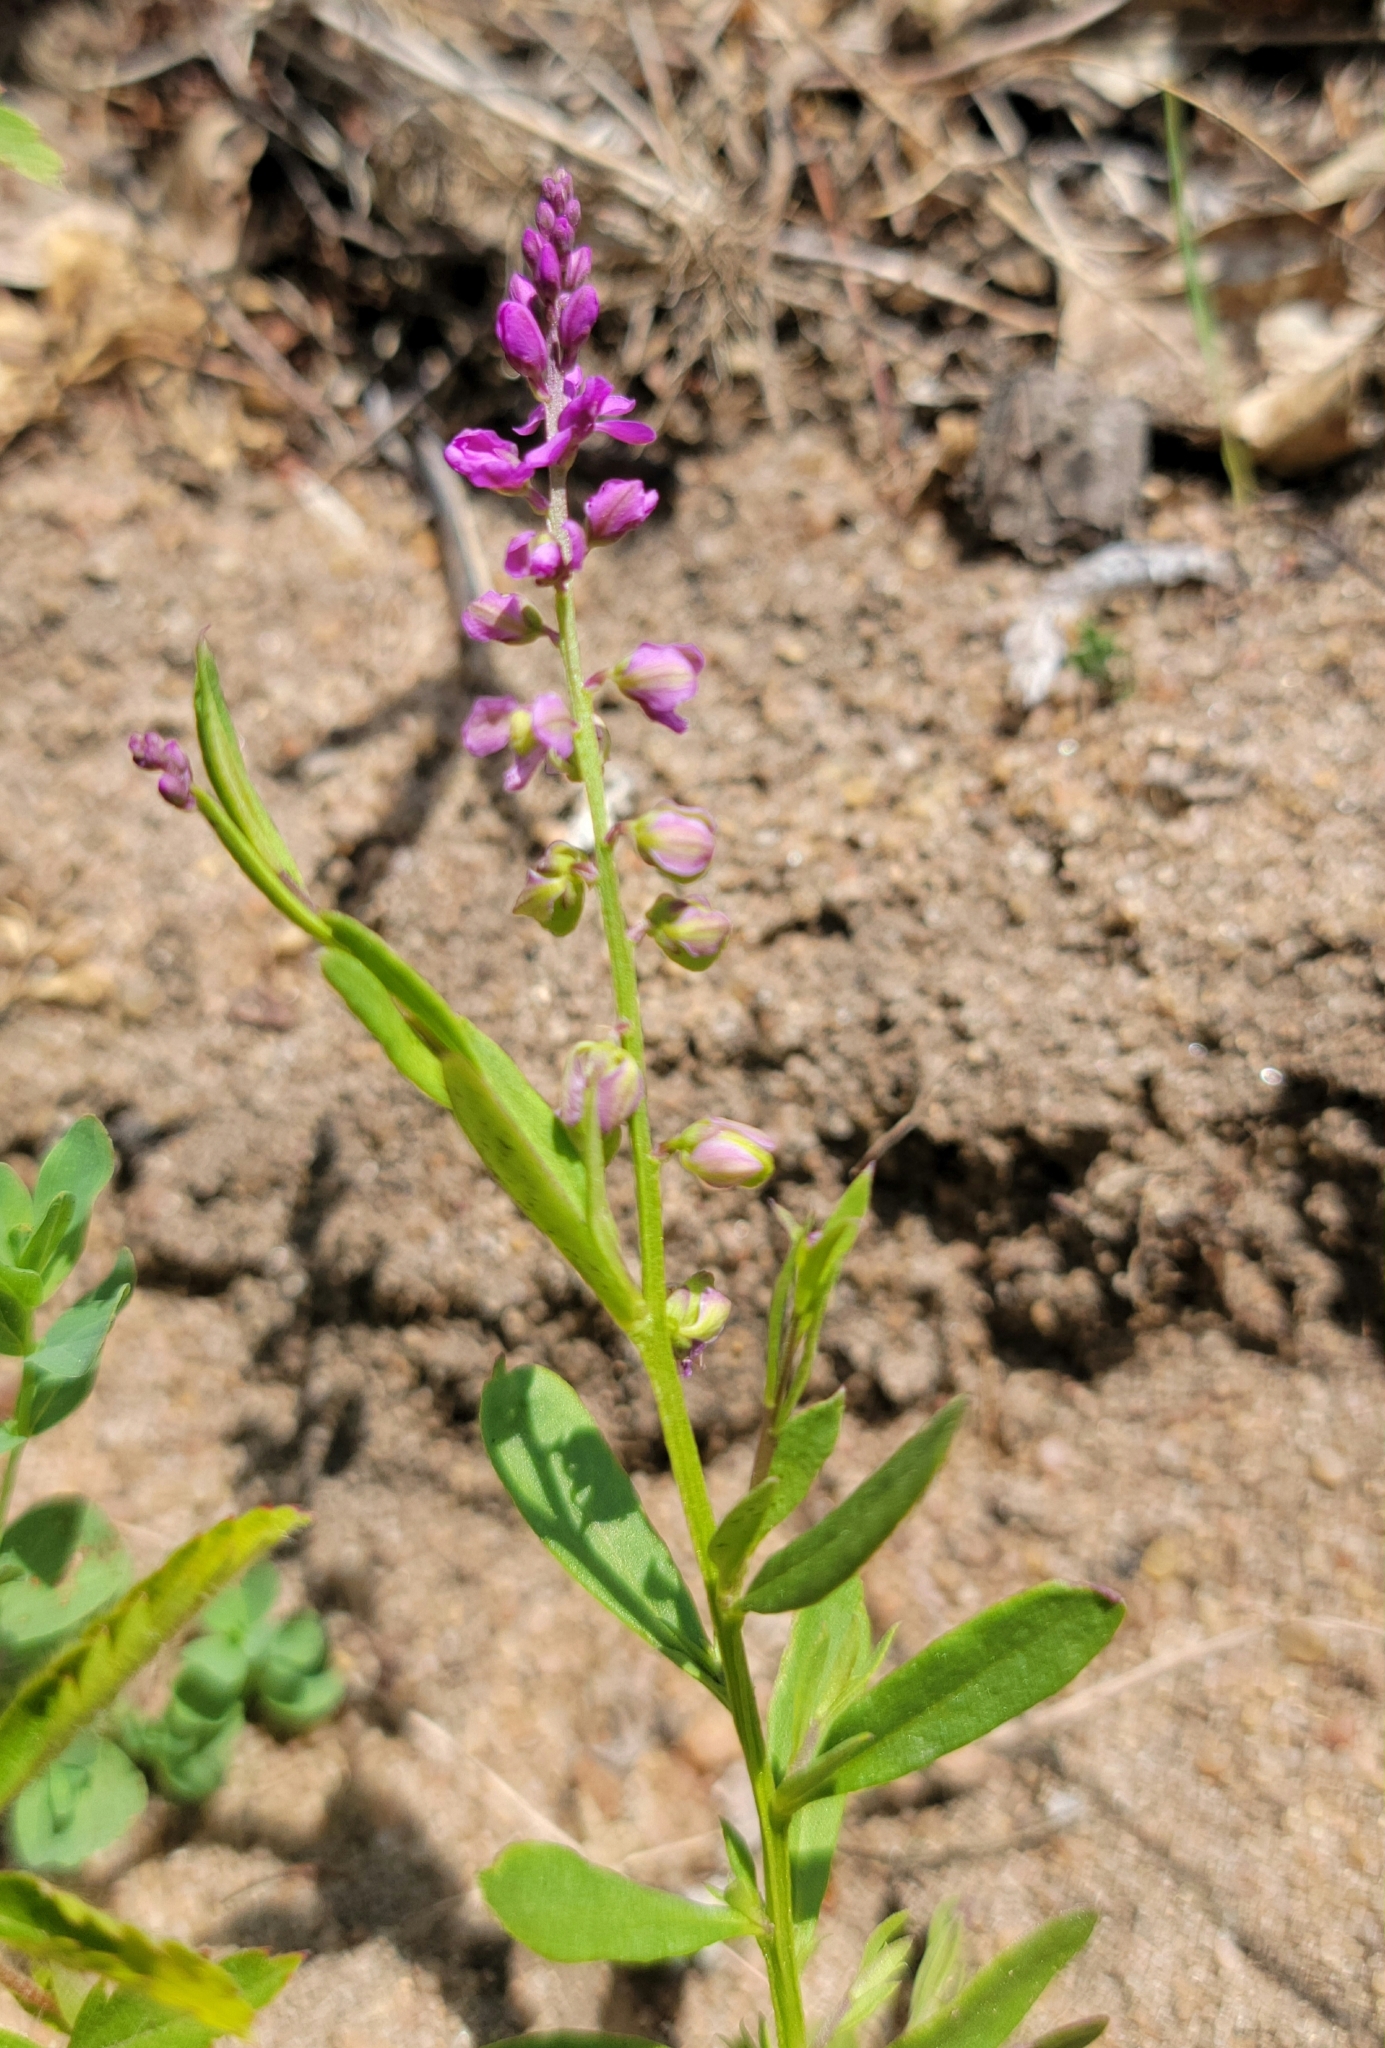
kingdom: Plantae
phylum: Tracheophyta
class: Magnoliopsida
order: Fabales
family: Polygalaceae
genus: Polygala
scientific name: Polygala polygama
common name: Bitter milkwort
